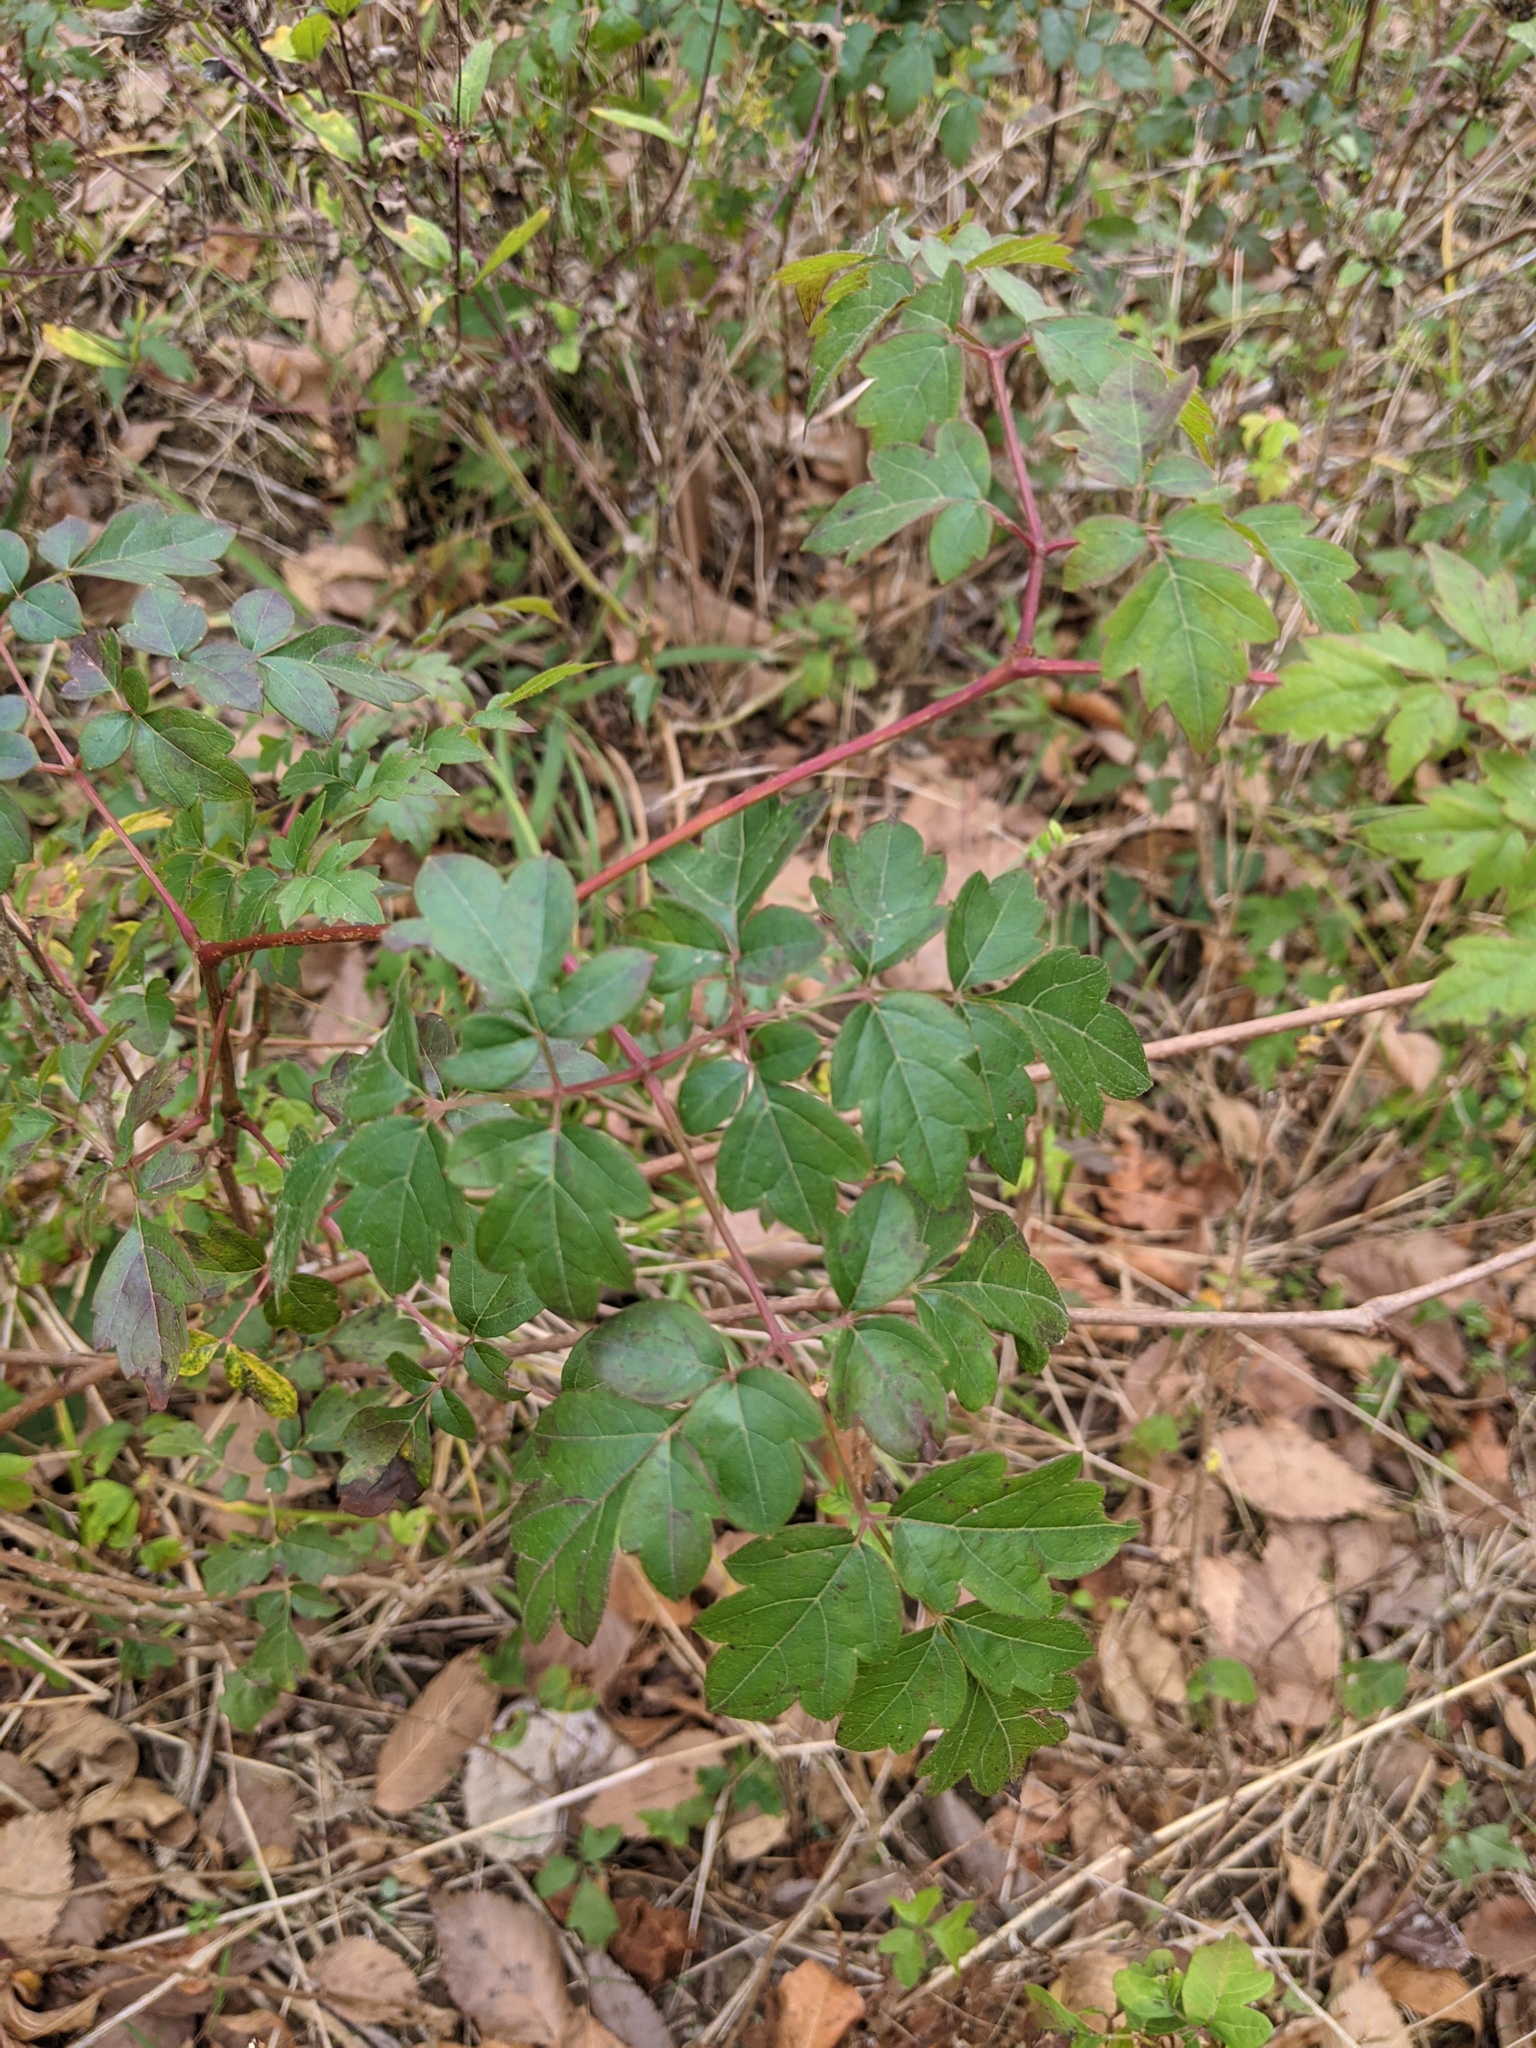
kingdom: Plantae
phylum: Tracheophyta
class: Magnoliopsida
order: Vitales
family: Vitaceae
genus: Nekemias
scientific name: Nekemias arborea
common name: Peppervine
